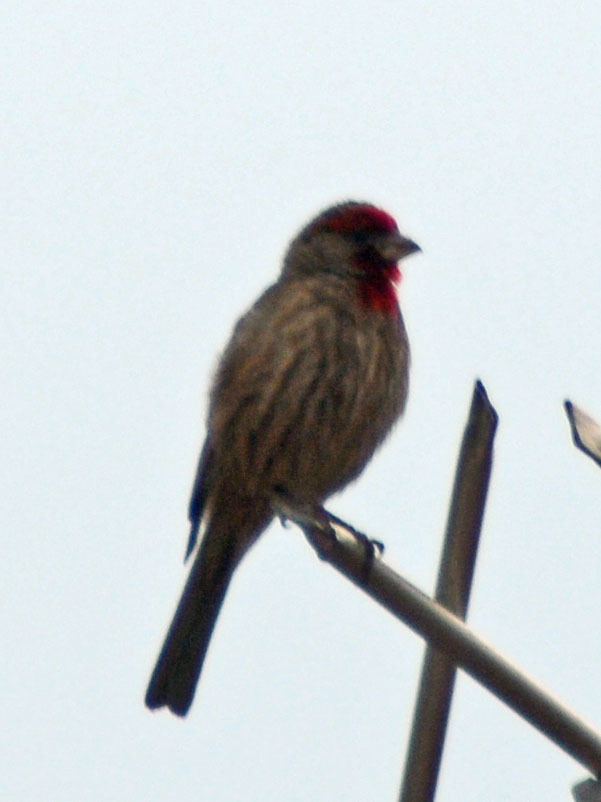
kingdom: Animalia
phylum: Chordata
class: Aves
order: Passeriformes
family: Fringillidae
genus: Haemorhous
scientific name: Haemorhous mexicanus
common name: House finch
